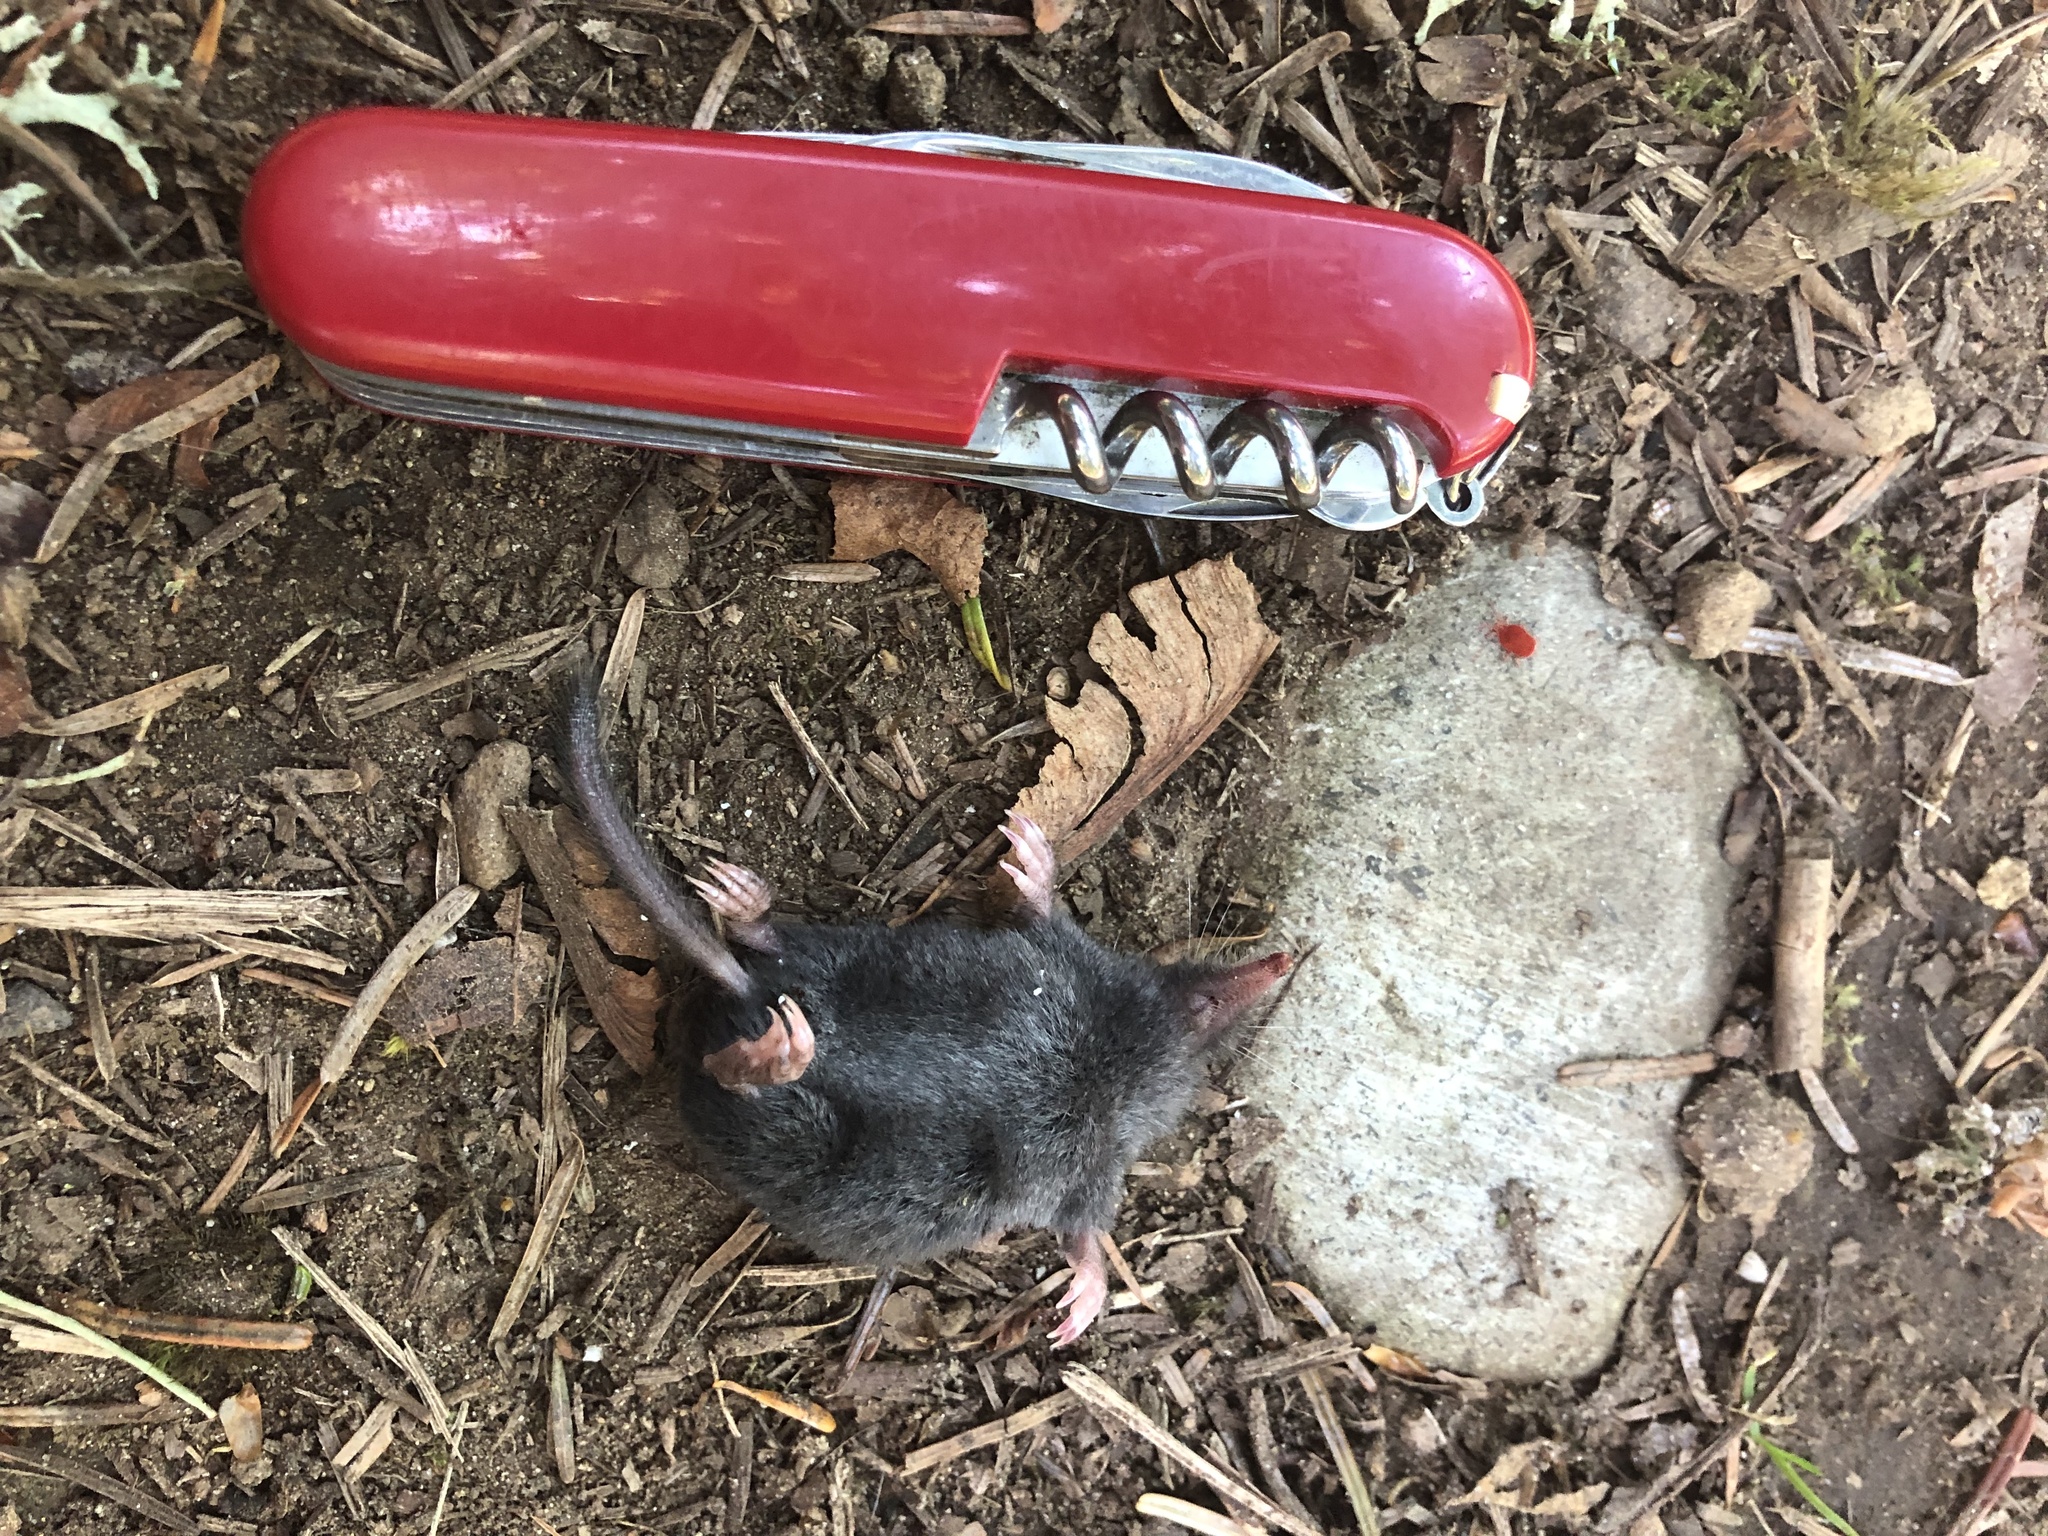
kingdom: Animalia
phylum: Chordata
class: Mammalia
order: Soricomorpha
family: Talpidae
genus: Neurotrichus
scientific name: Neurotrichus gibbsii
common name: American shrew mole
